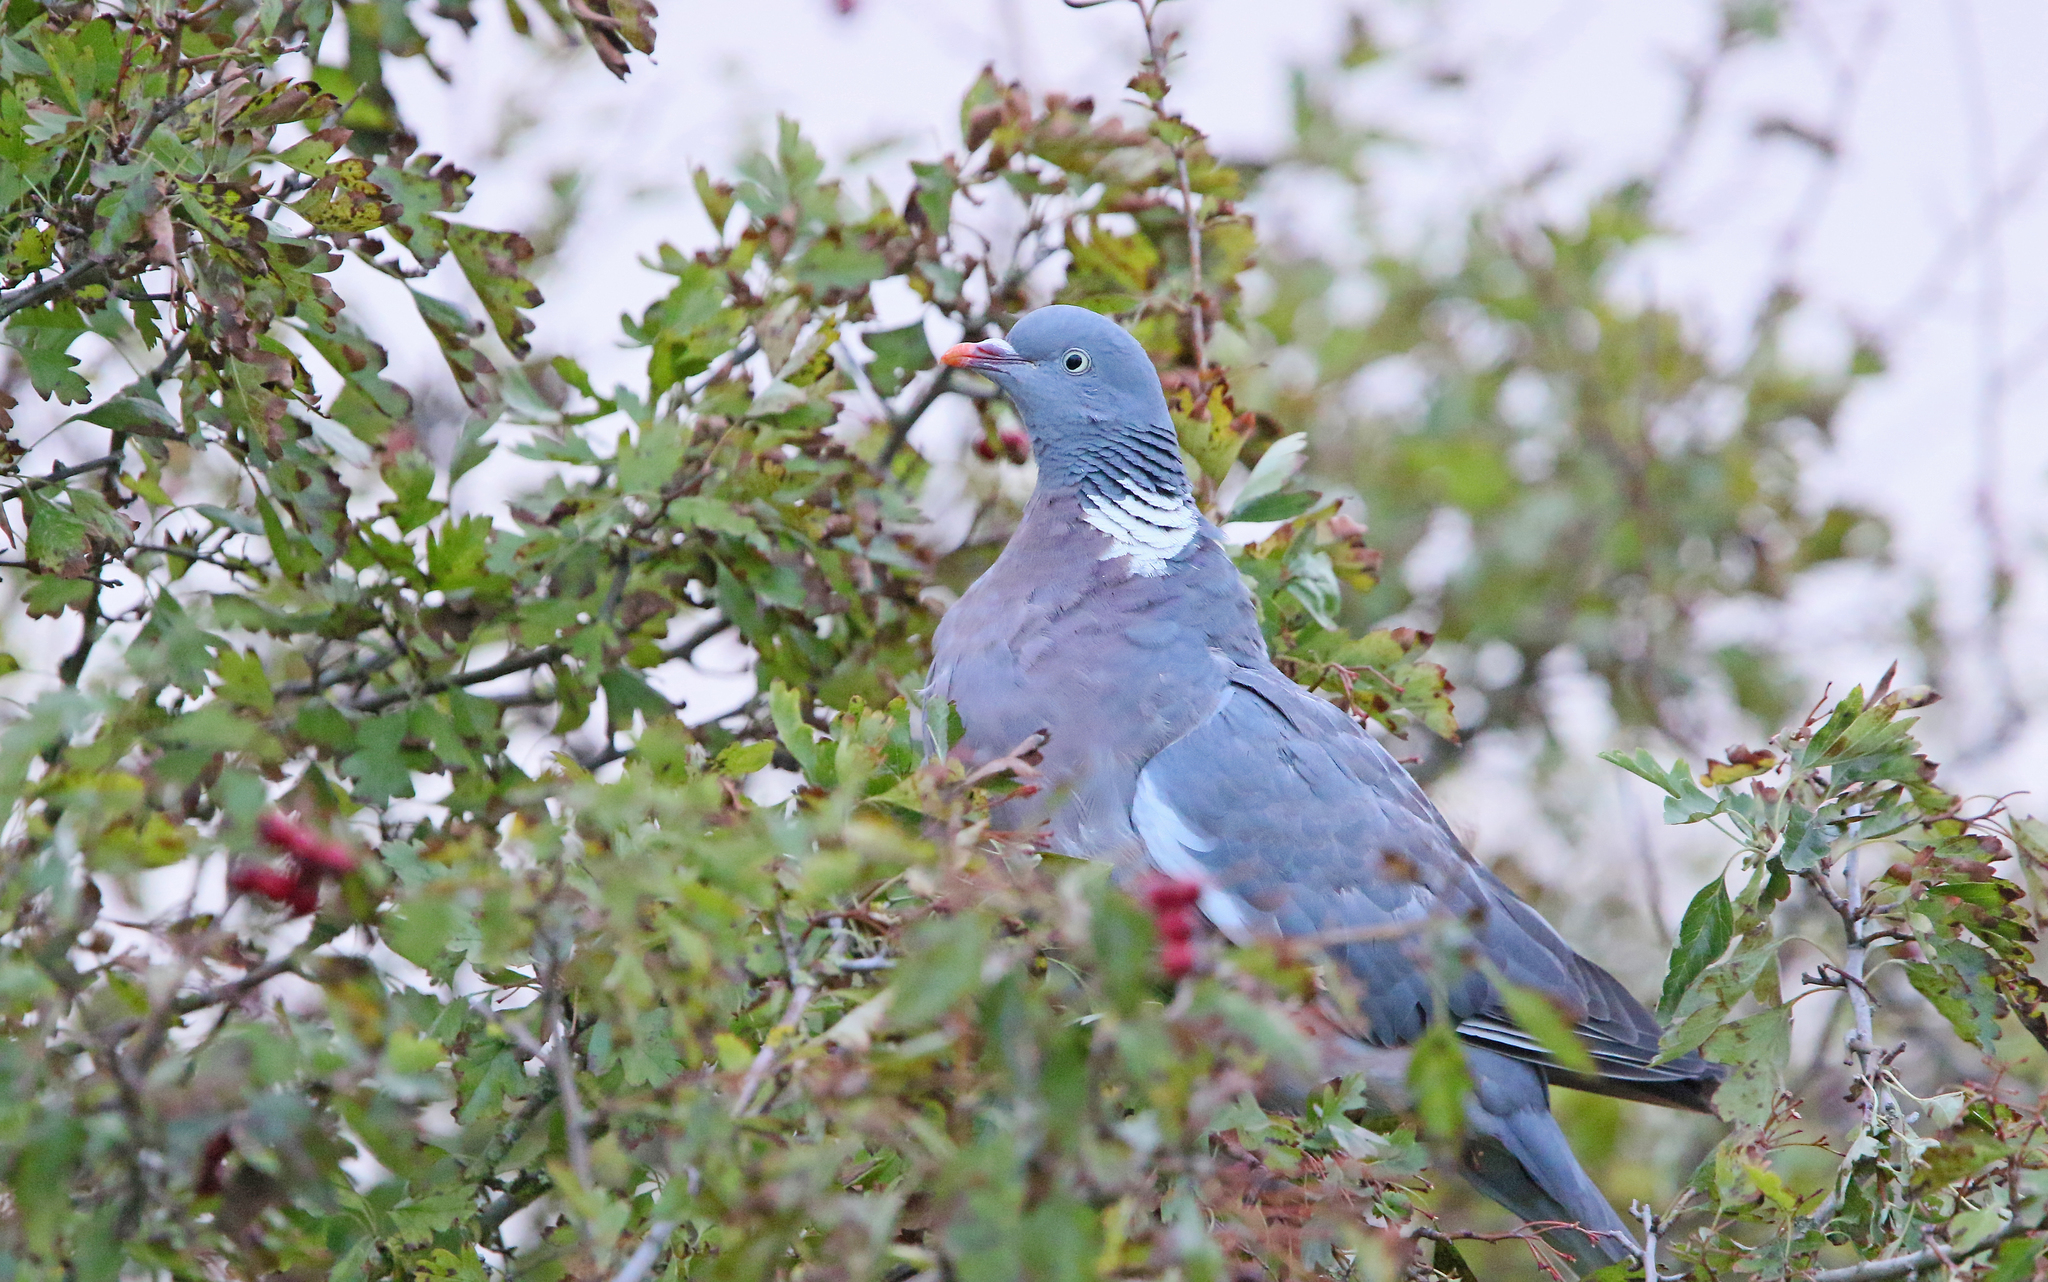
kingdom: Animalia
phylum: Chordata
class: Aves
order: Columbiformes
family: Columbidae
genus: Columba
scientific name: Columba palumbus
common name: Common wood pigeon
